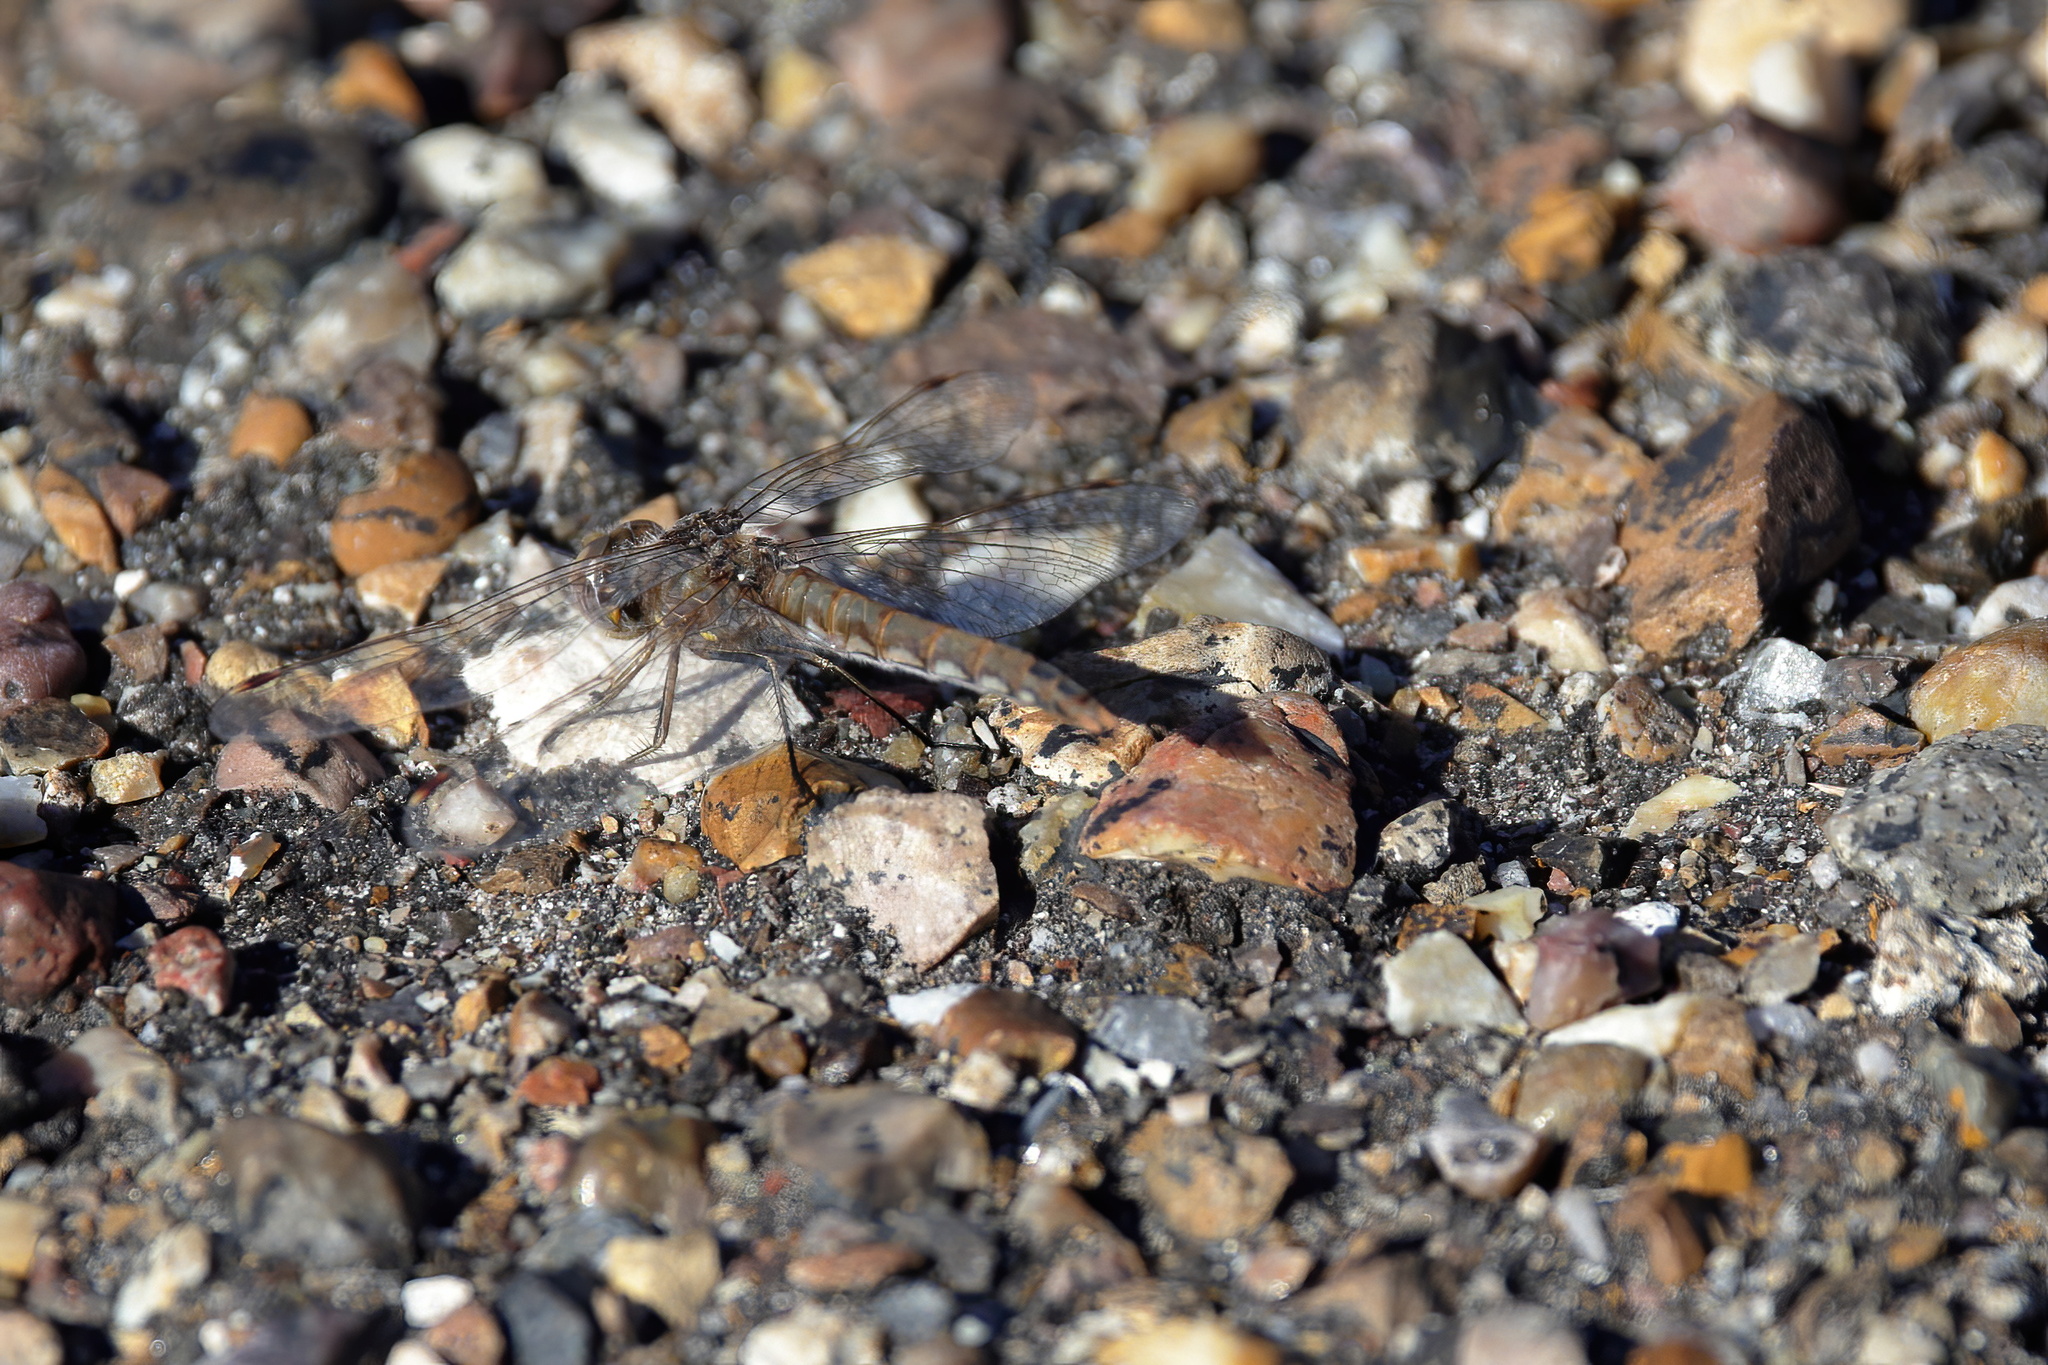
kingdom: Animalia
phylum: Arthropoda
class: Insecta
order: Odonata
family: Libellulidae
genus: Sympetrum
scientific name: Sympetrum corruptum
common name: Variegated meadowhawk
